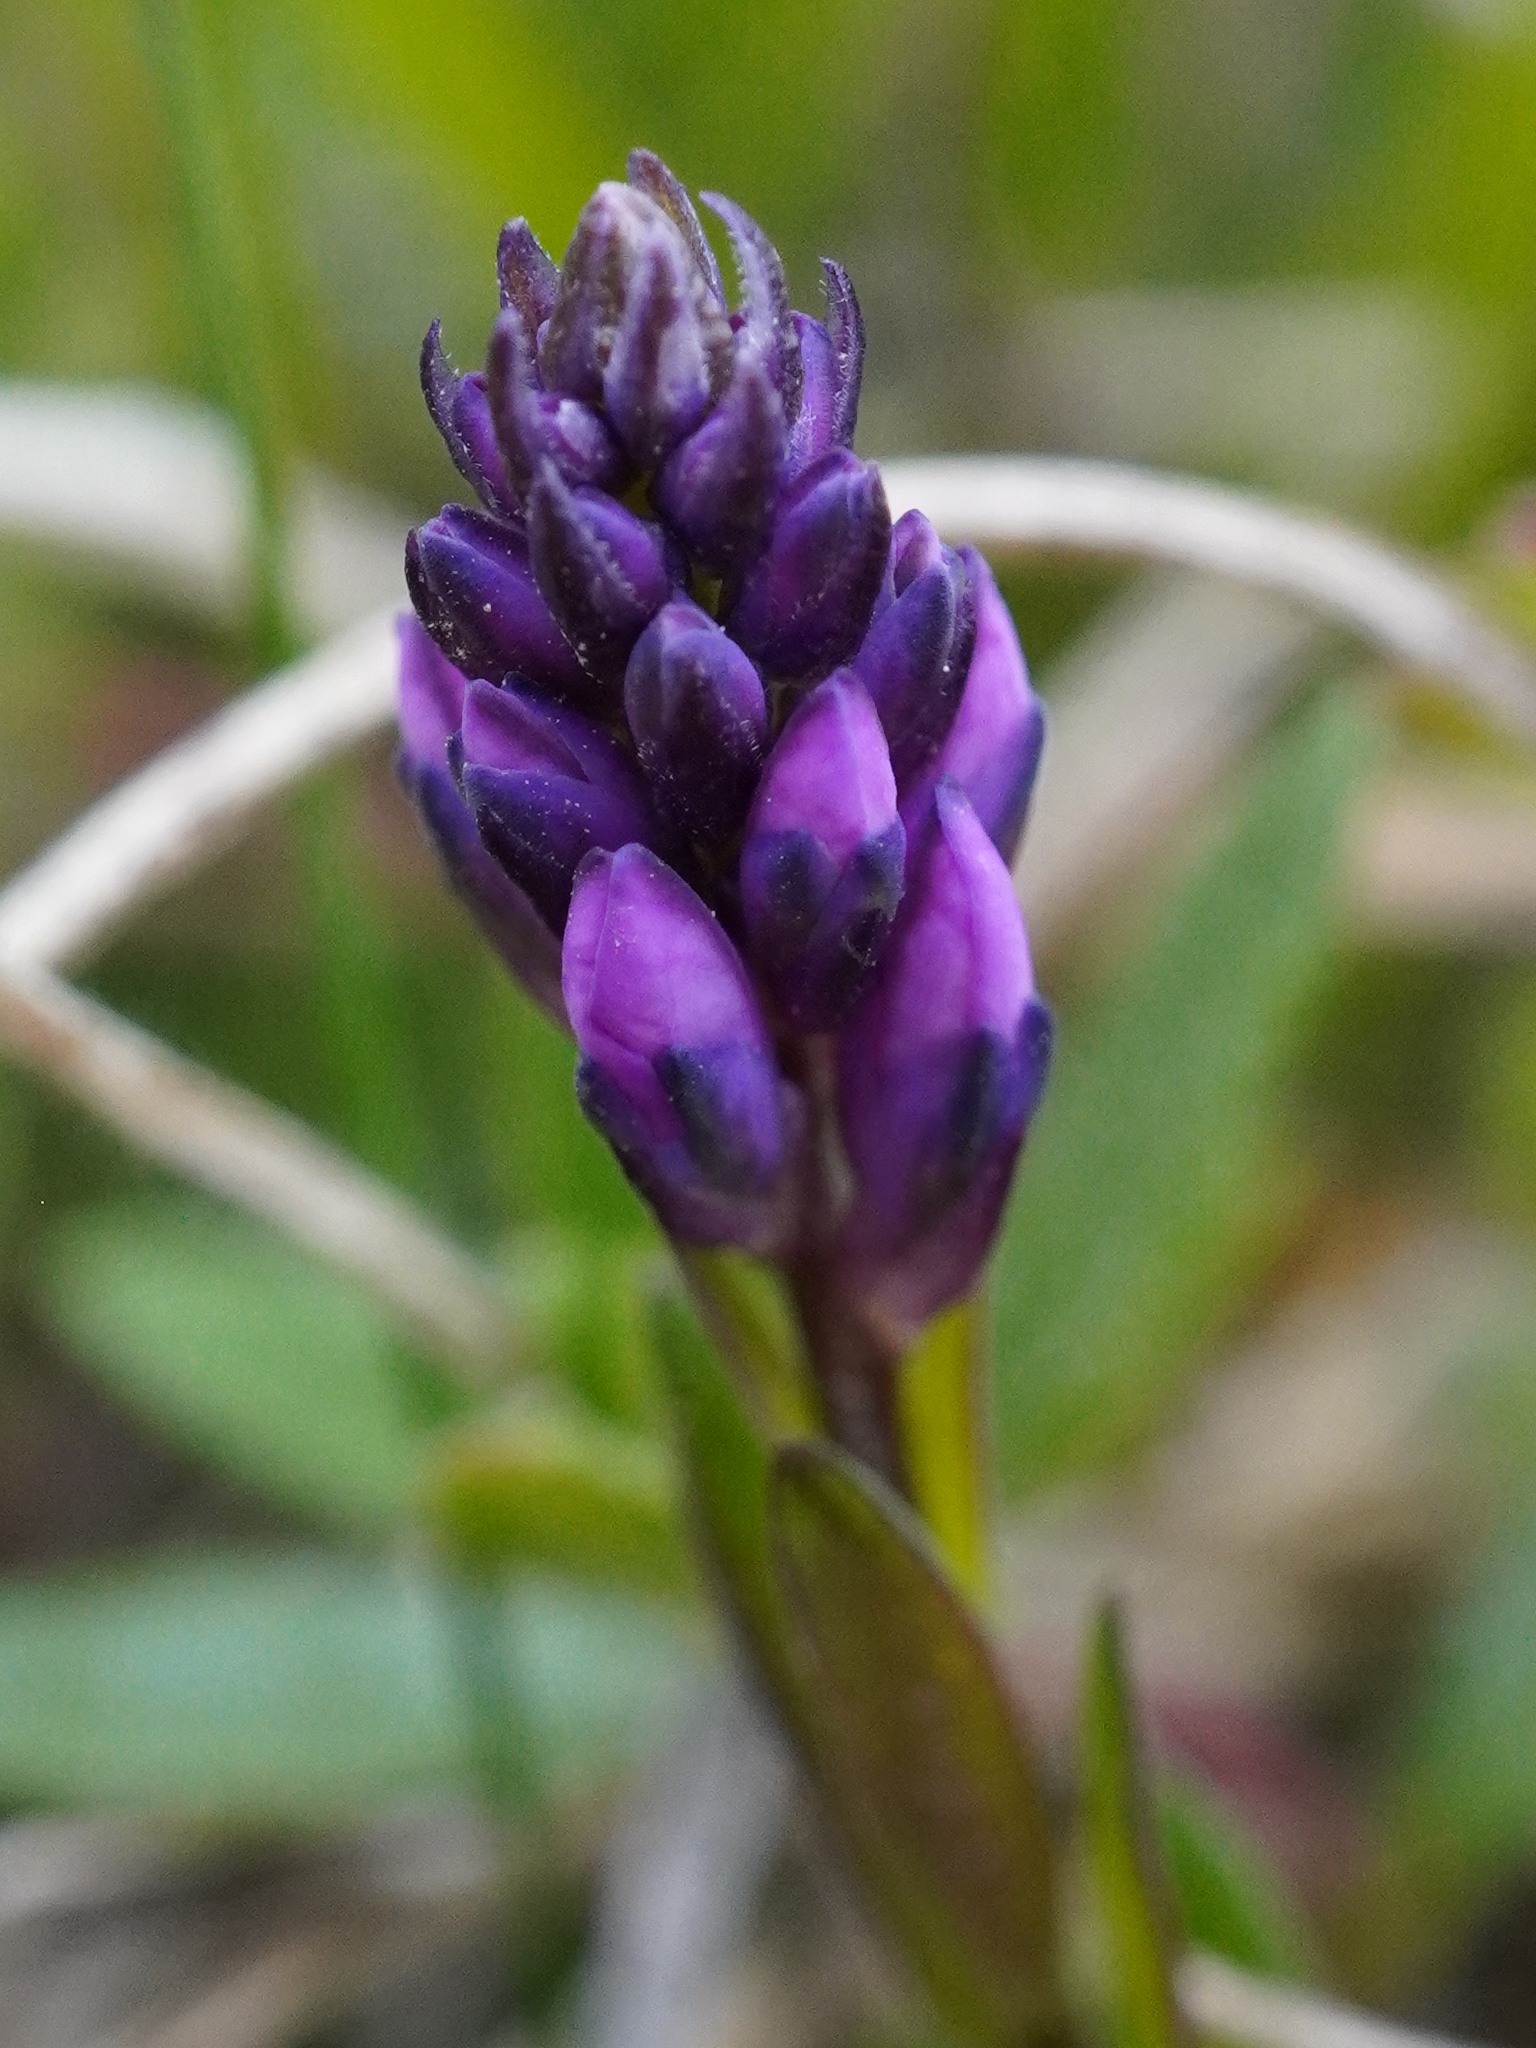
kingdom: Plantae
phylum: Tracheophyta
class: Magnoliopsida
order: Fabales
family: Polygalaceae
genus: Polygala
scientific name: Polygala comosa
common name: Tufted milkwort
